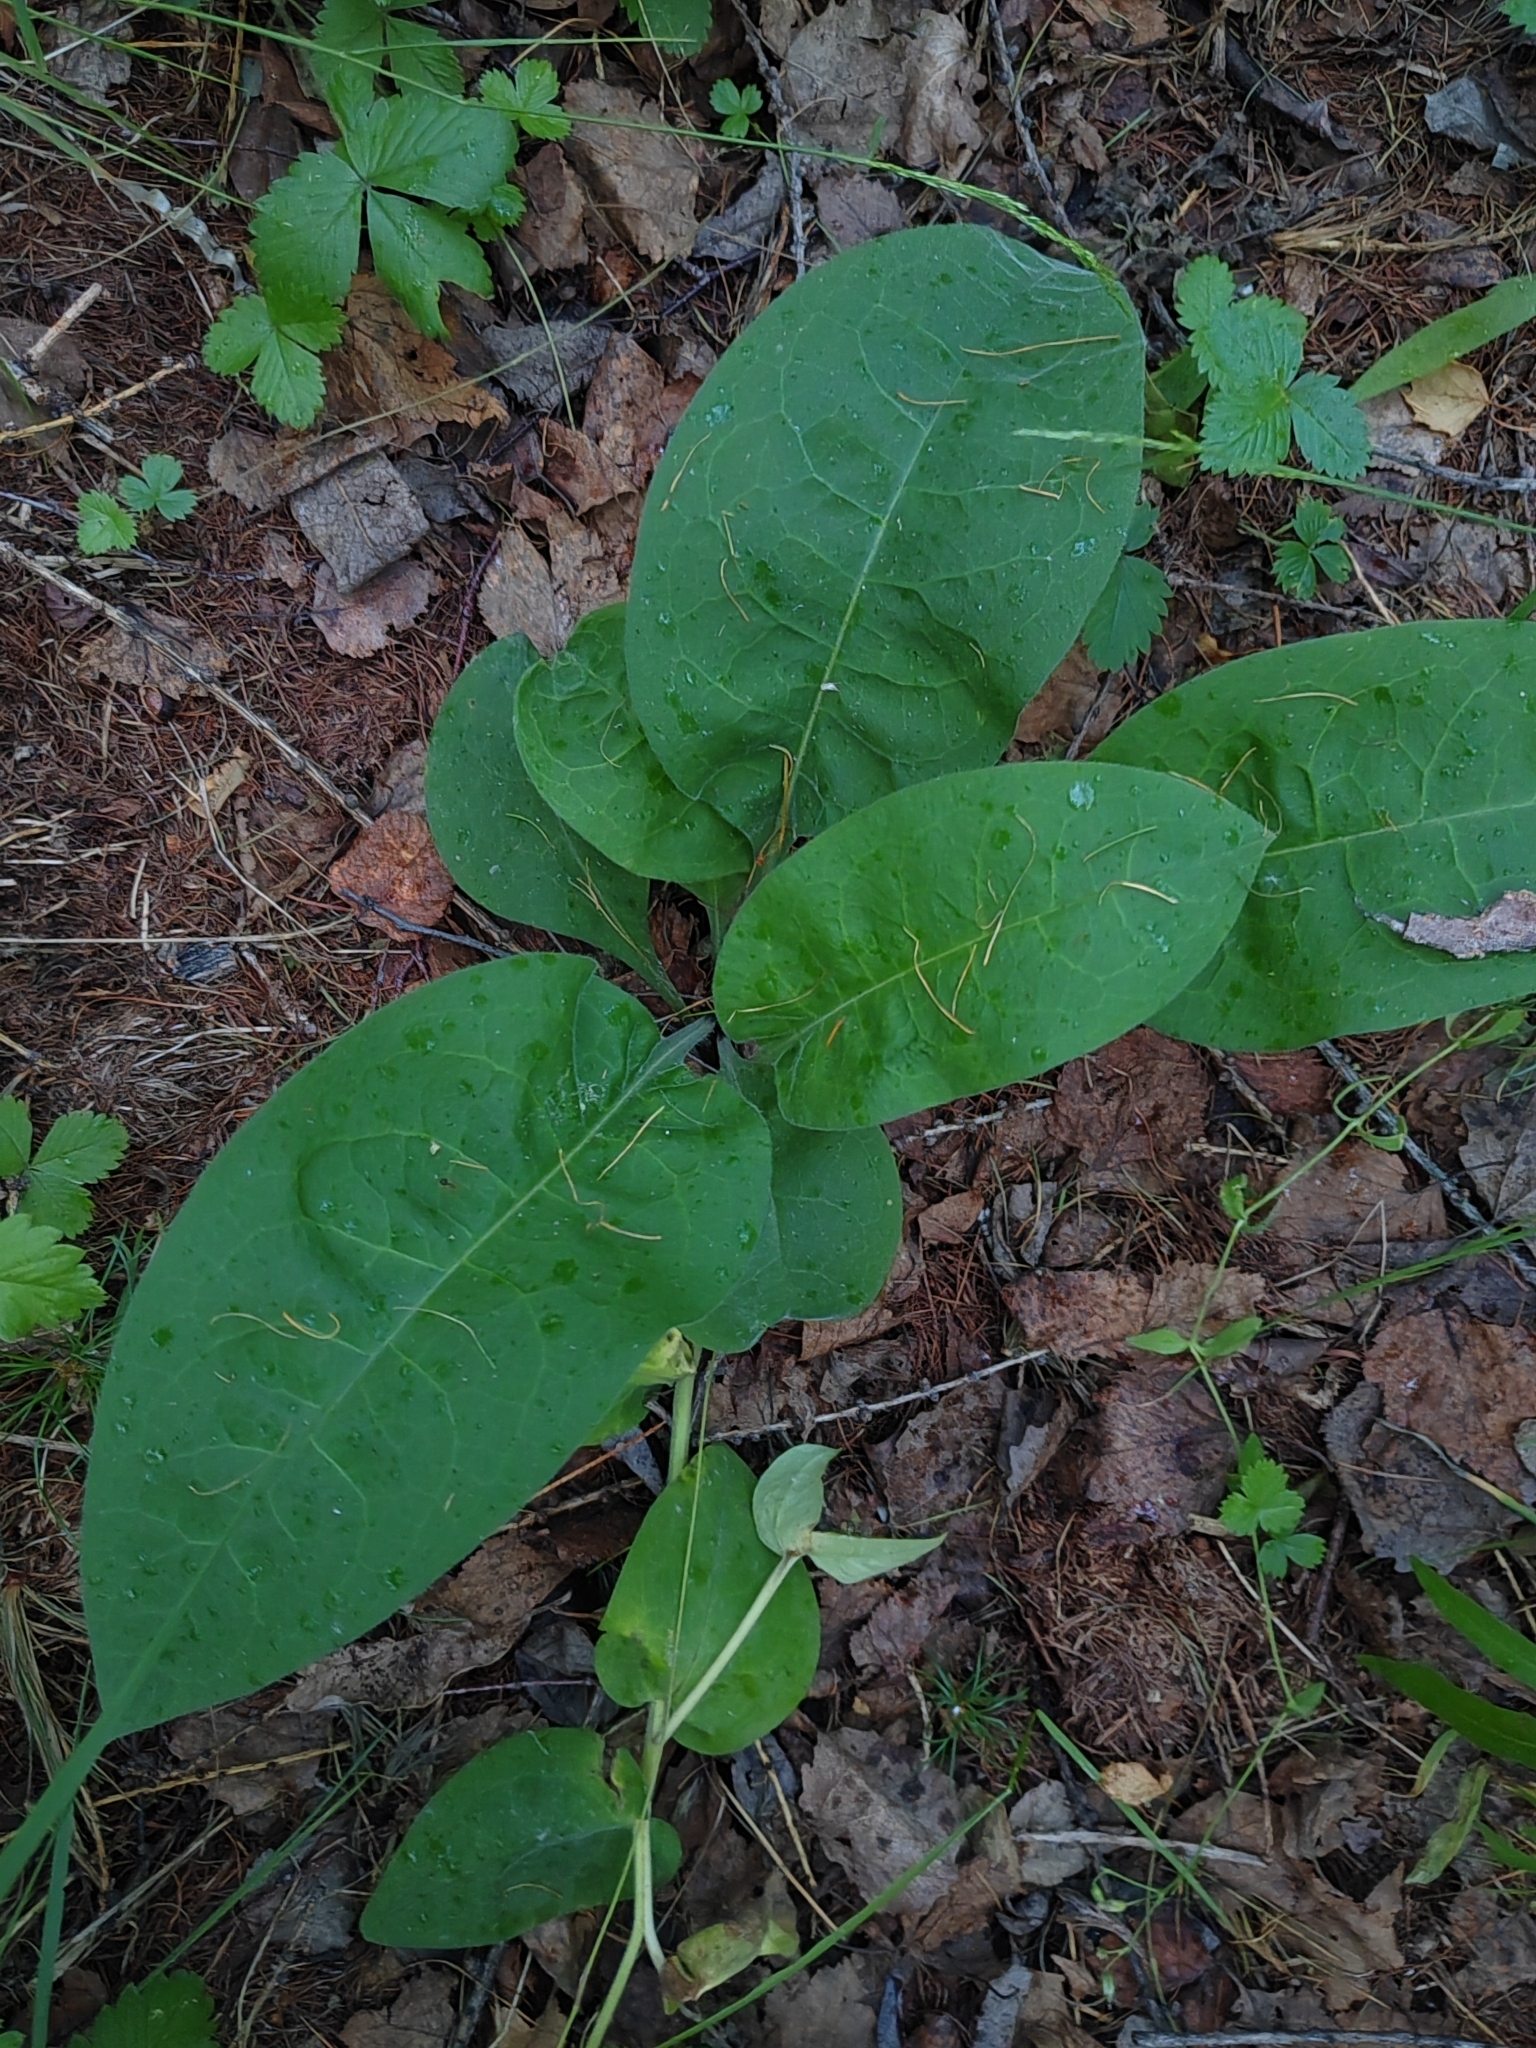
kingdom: Plantae
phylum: Tracheophyta
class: Magnoliopsida
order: Boraginales
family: Boraginaceae
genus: Pulmonaria
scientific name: Pulmonaria mollis
